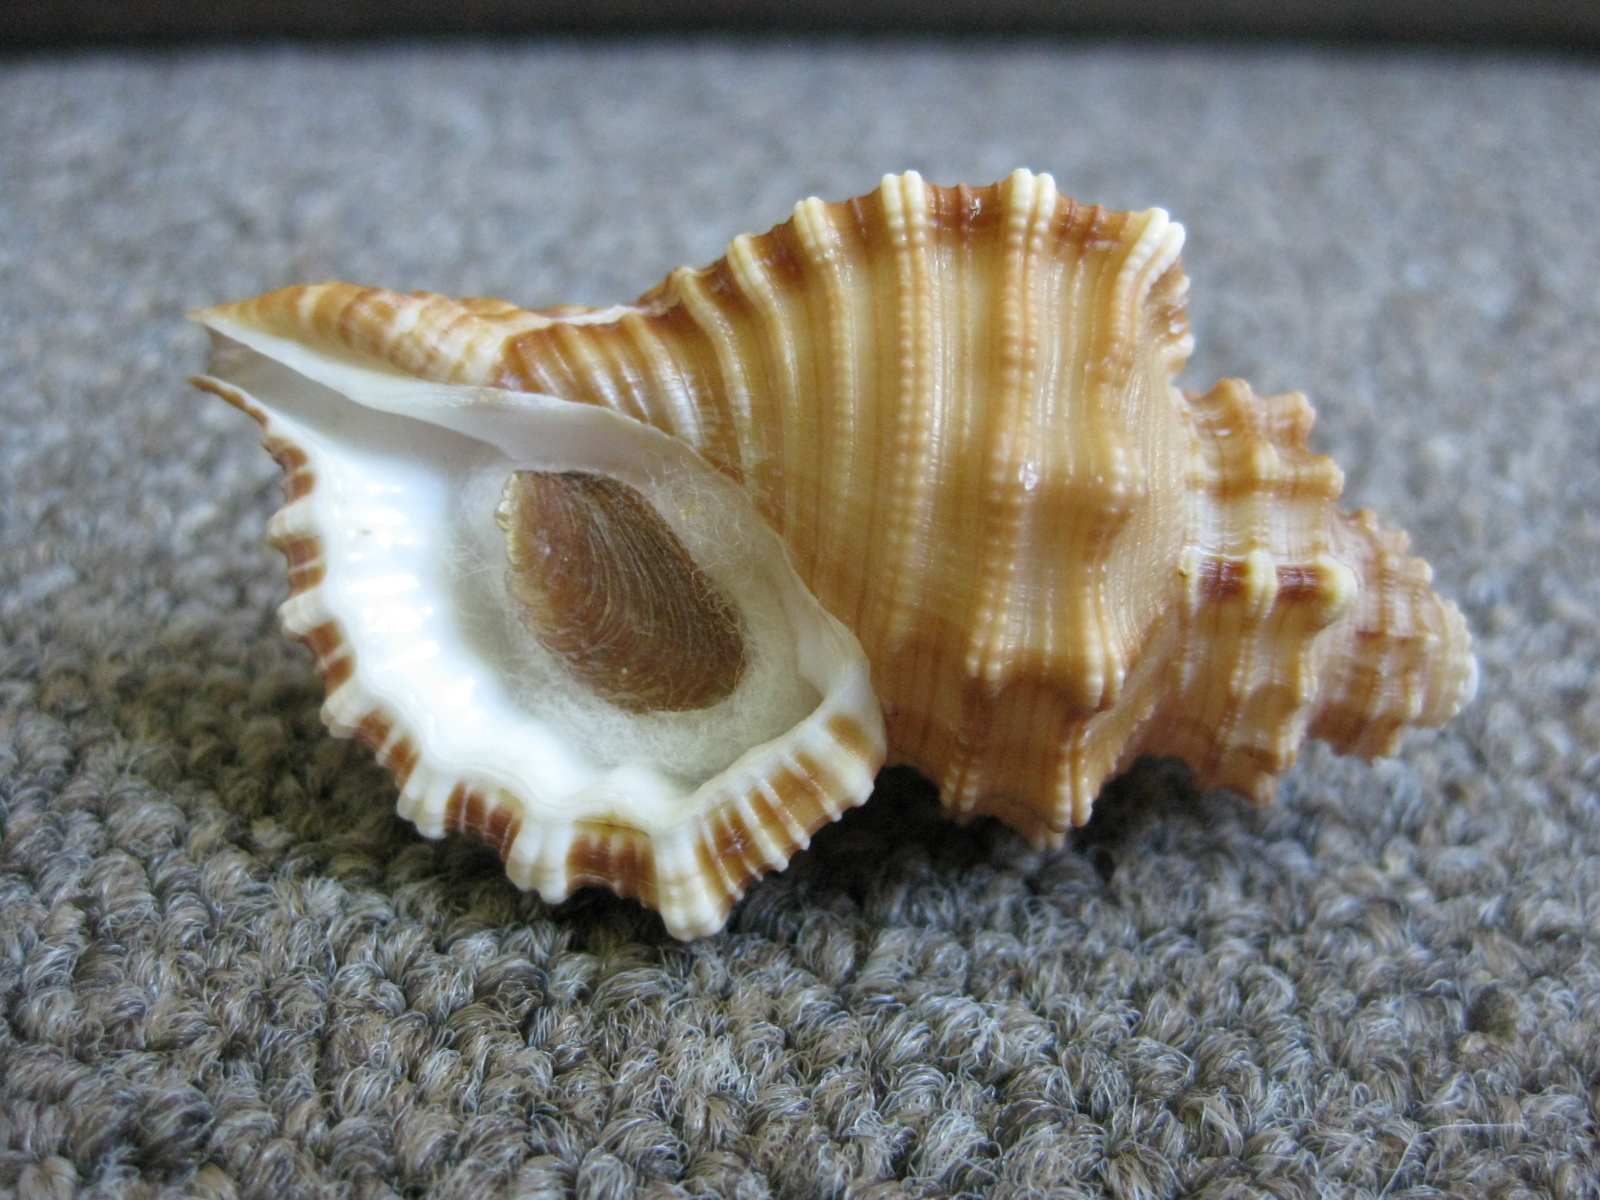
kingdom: Animalia
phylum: Mollusca
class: Gastropoda
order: Littorinimorpha
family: Cymatiidae
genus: Cabestana
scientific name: Cabestana tabulata
